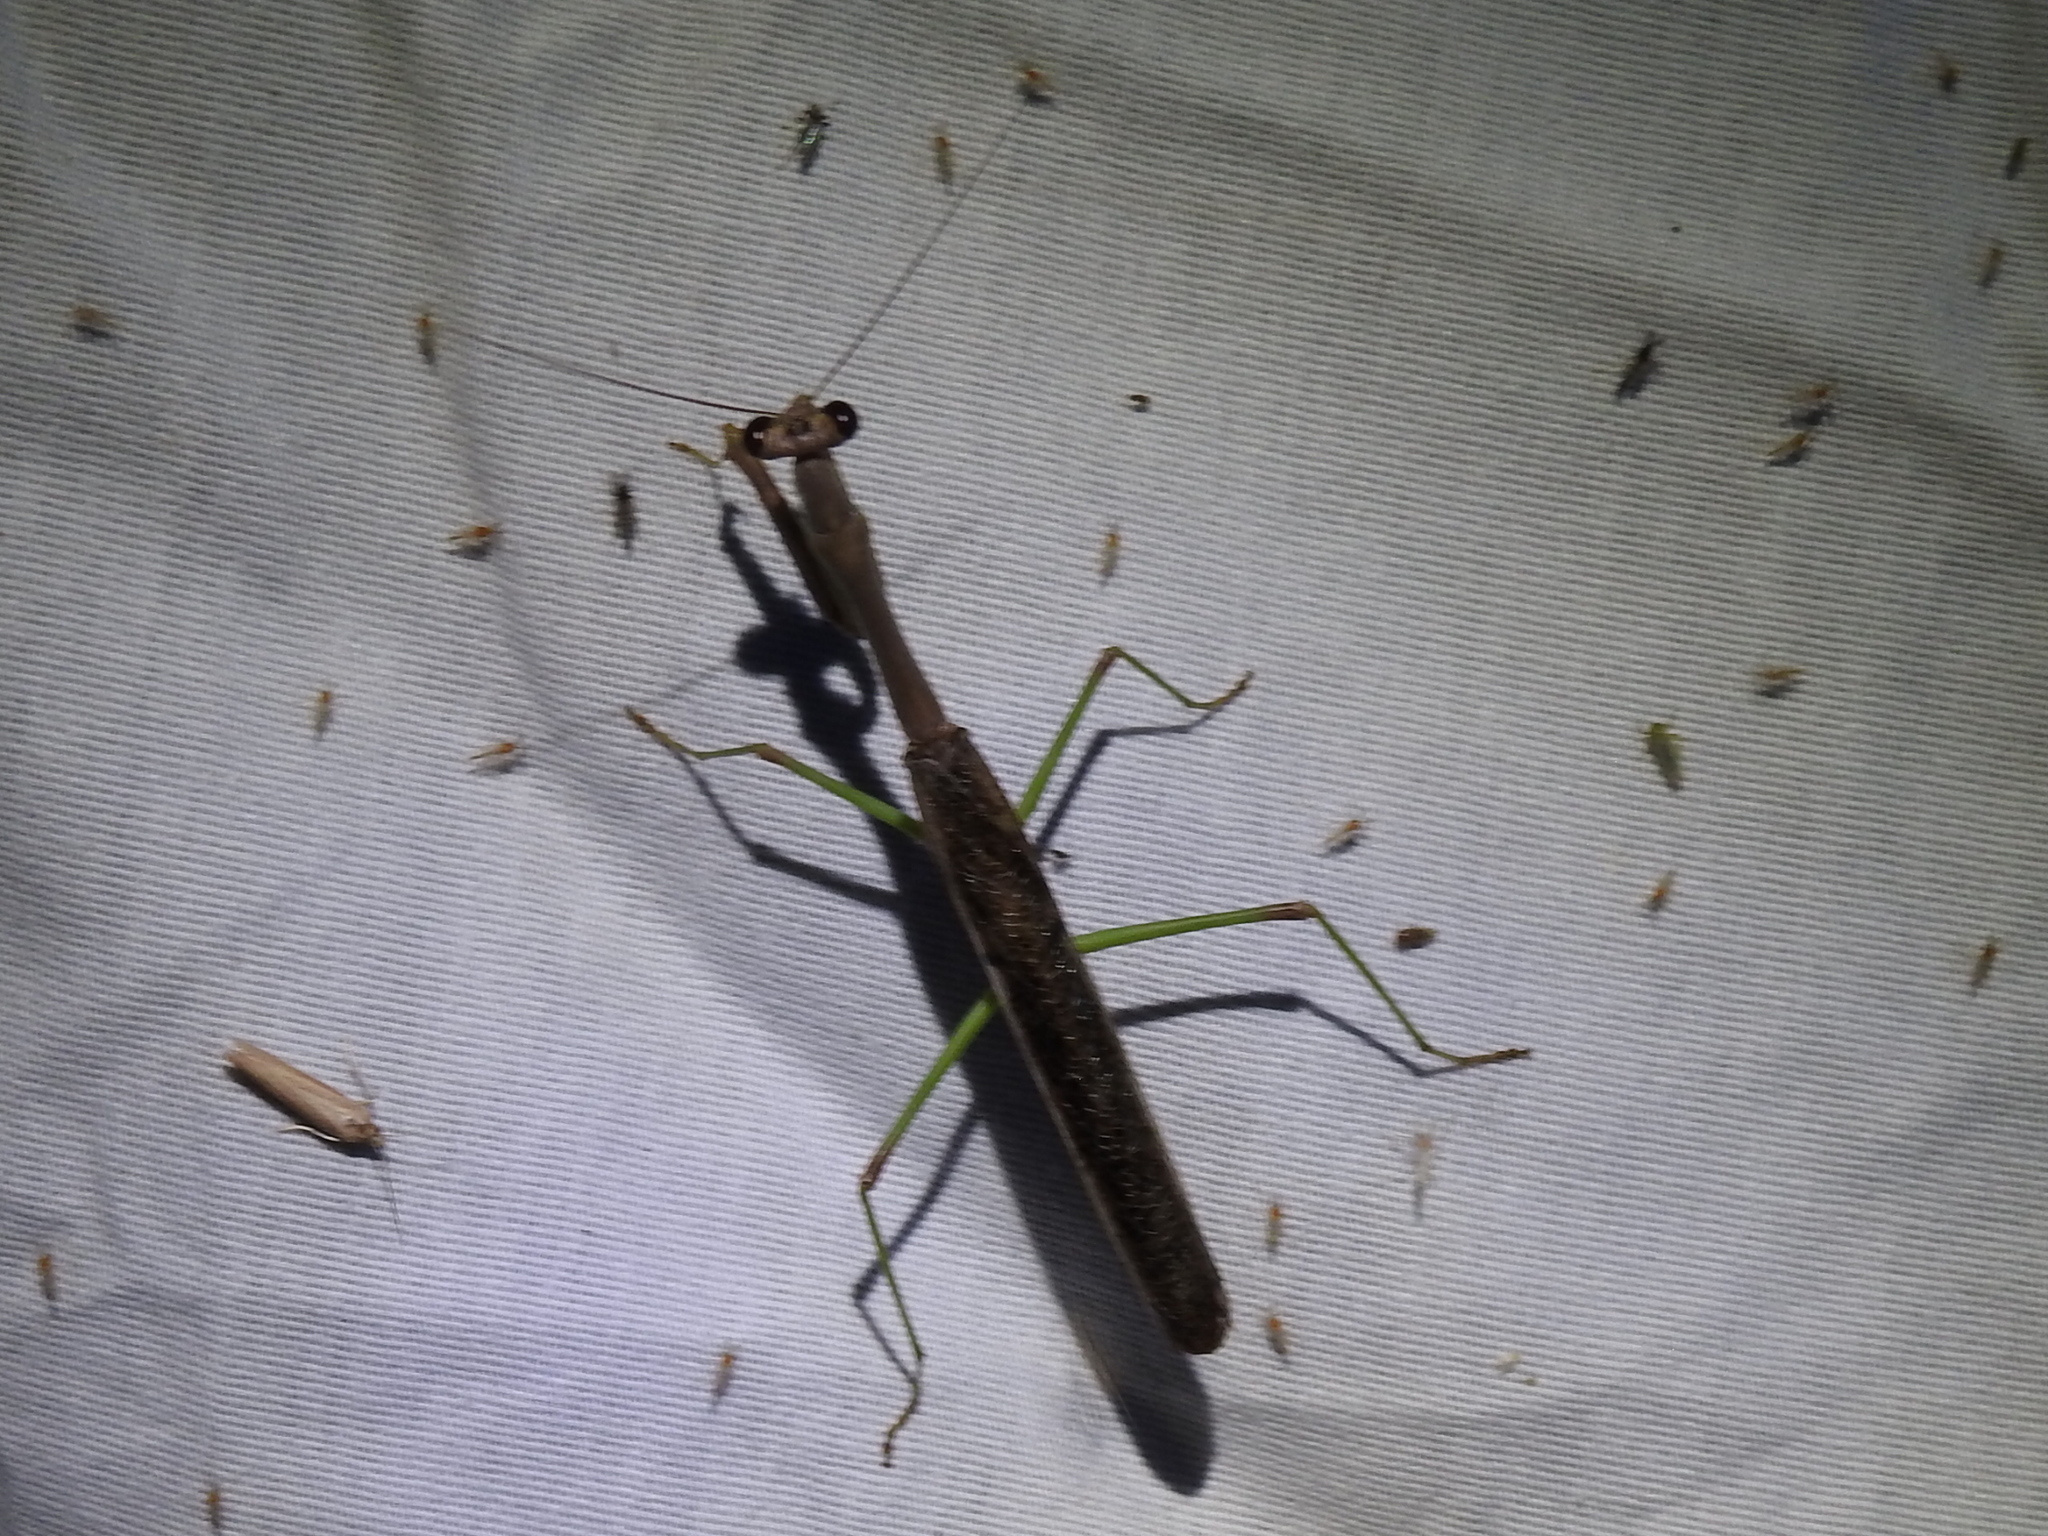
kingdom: Animalia
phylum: Arthropoda
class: Insecta
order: Mantodea
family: Mantidae
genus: Stagmomantis
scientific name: Stagmomantis carolina
